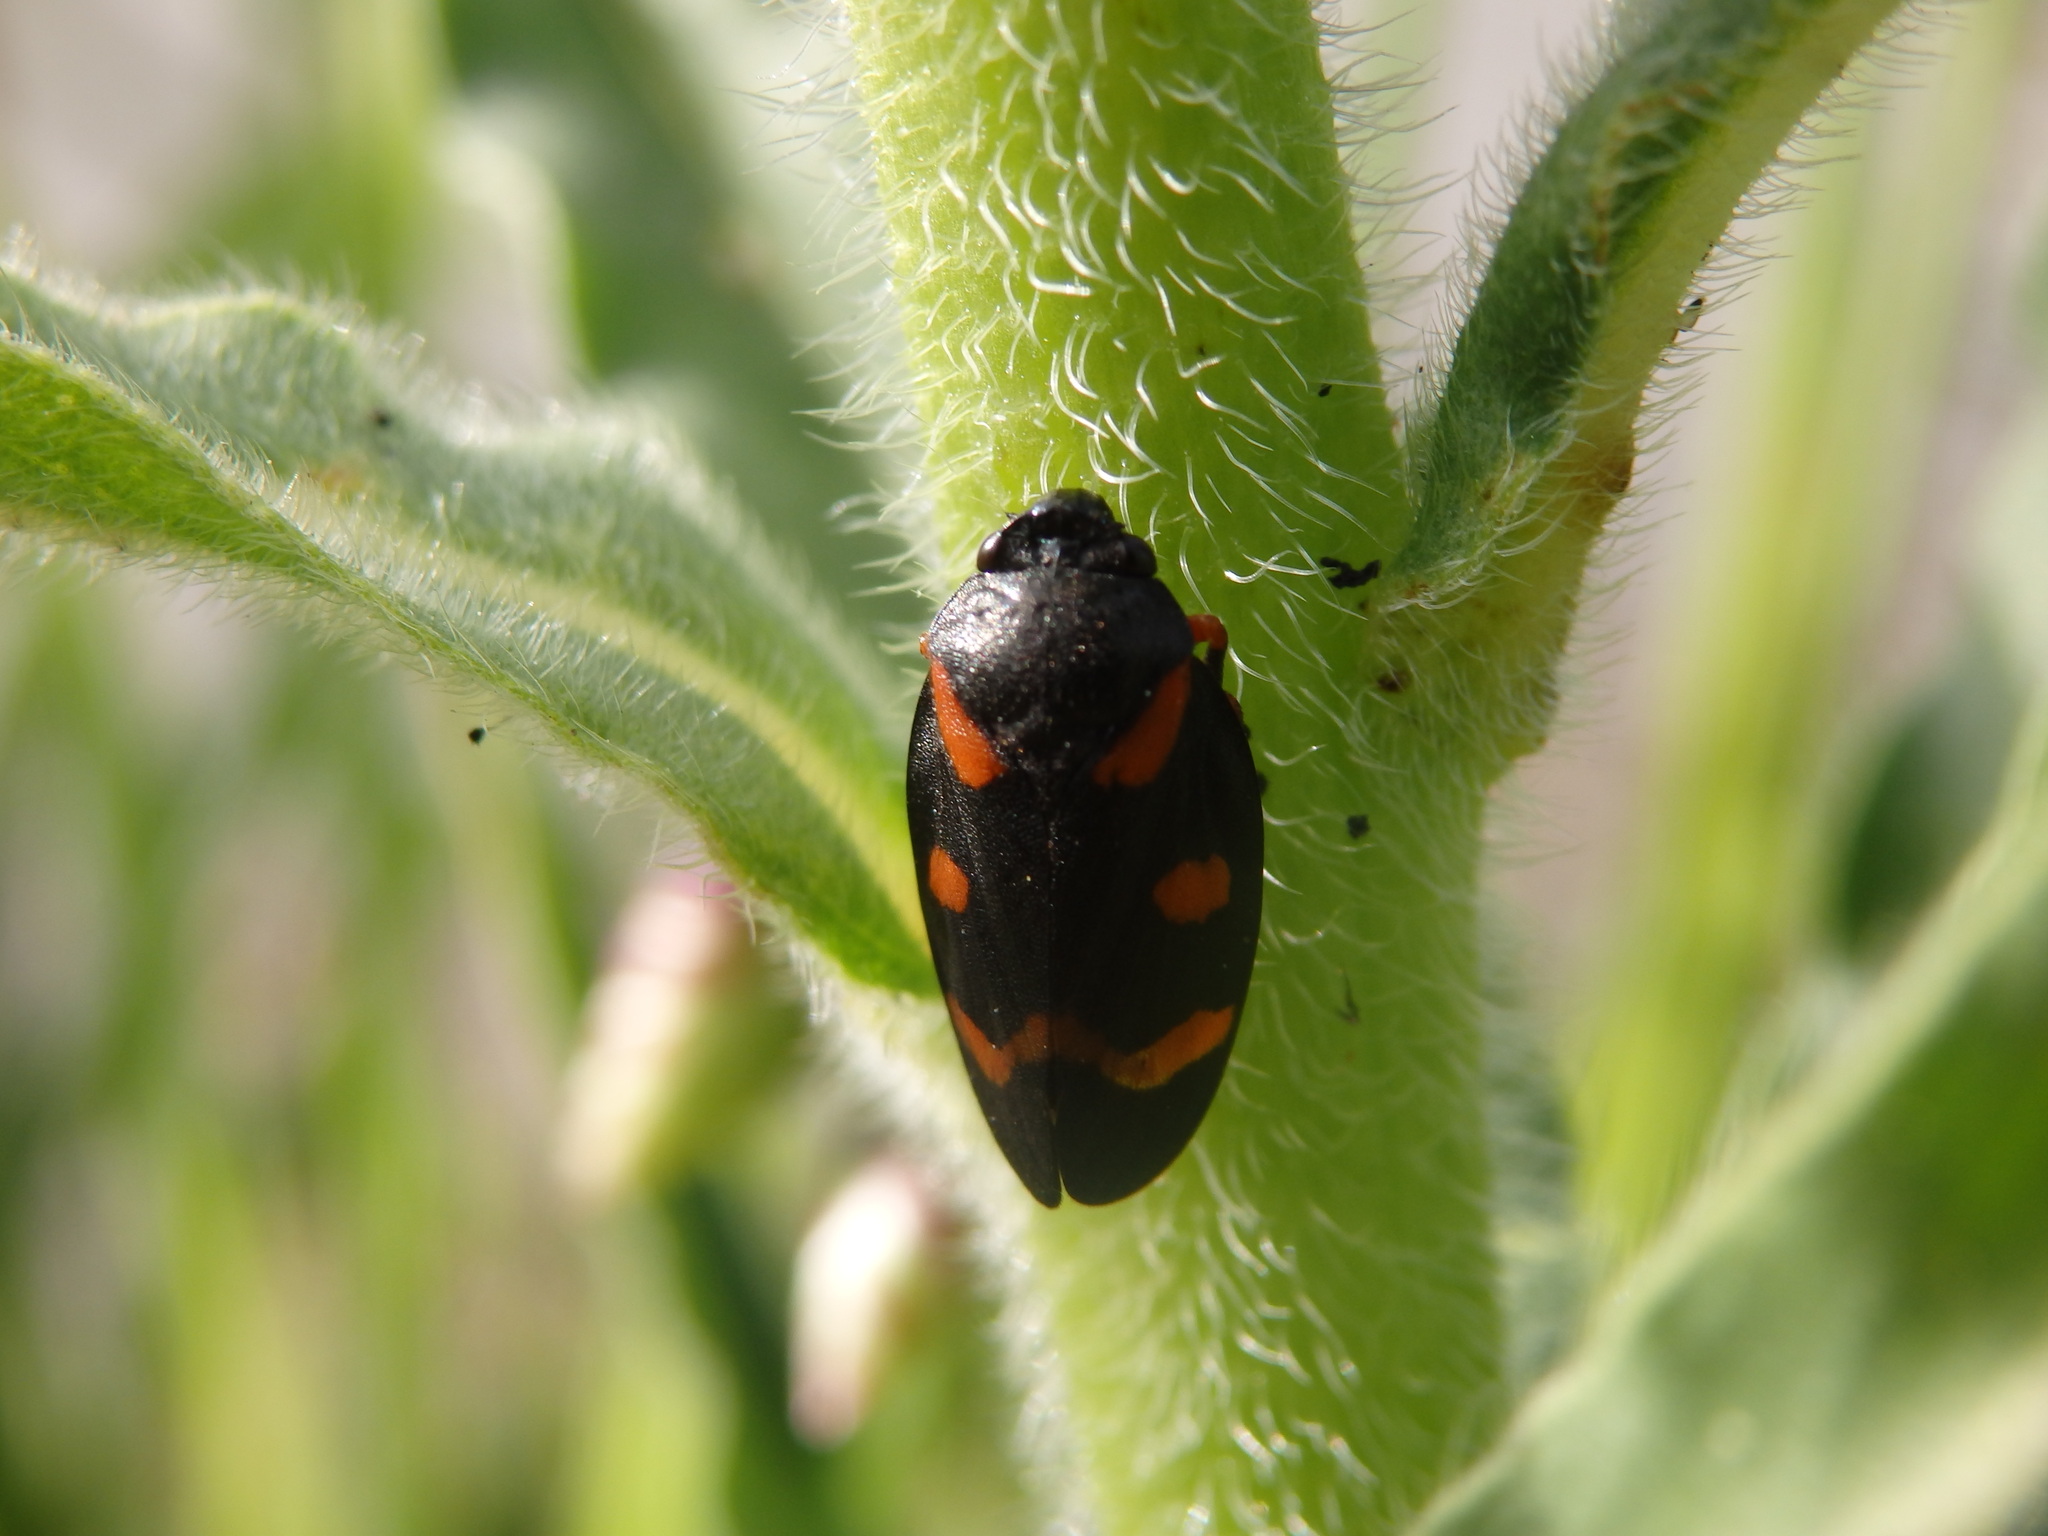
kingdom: Animalia
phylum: Arthropoda
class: Insecta
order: Hemiptera
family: Cercopidae
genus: Cercopis
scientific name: Cercopis intermedia
